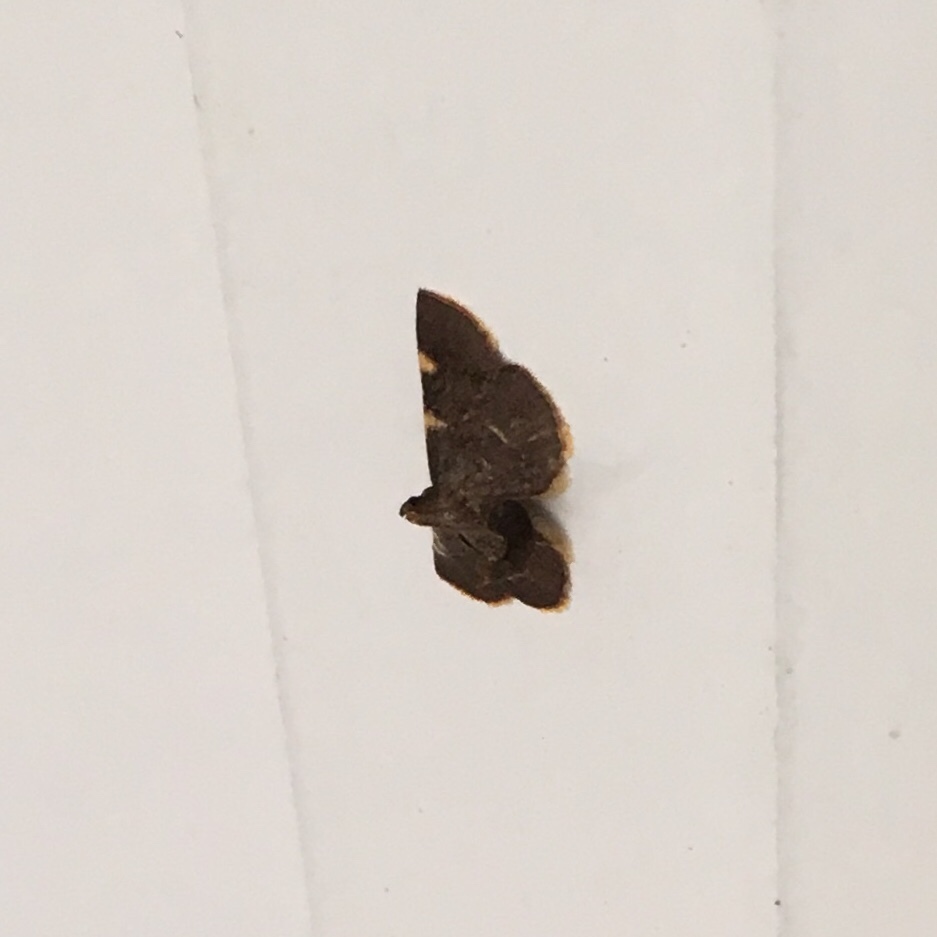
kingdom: Animalia
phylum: Arthropoda
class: Insecta
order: Lepidoptera
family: Pyralidae
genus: Hypsopygia
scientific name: Hypsopygia olinalis
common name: Yellow-fringed dolichomia moth
